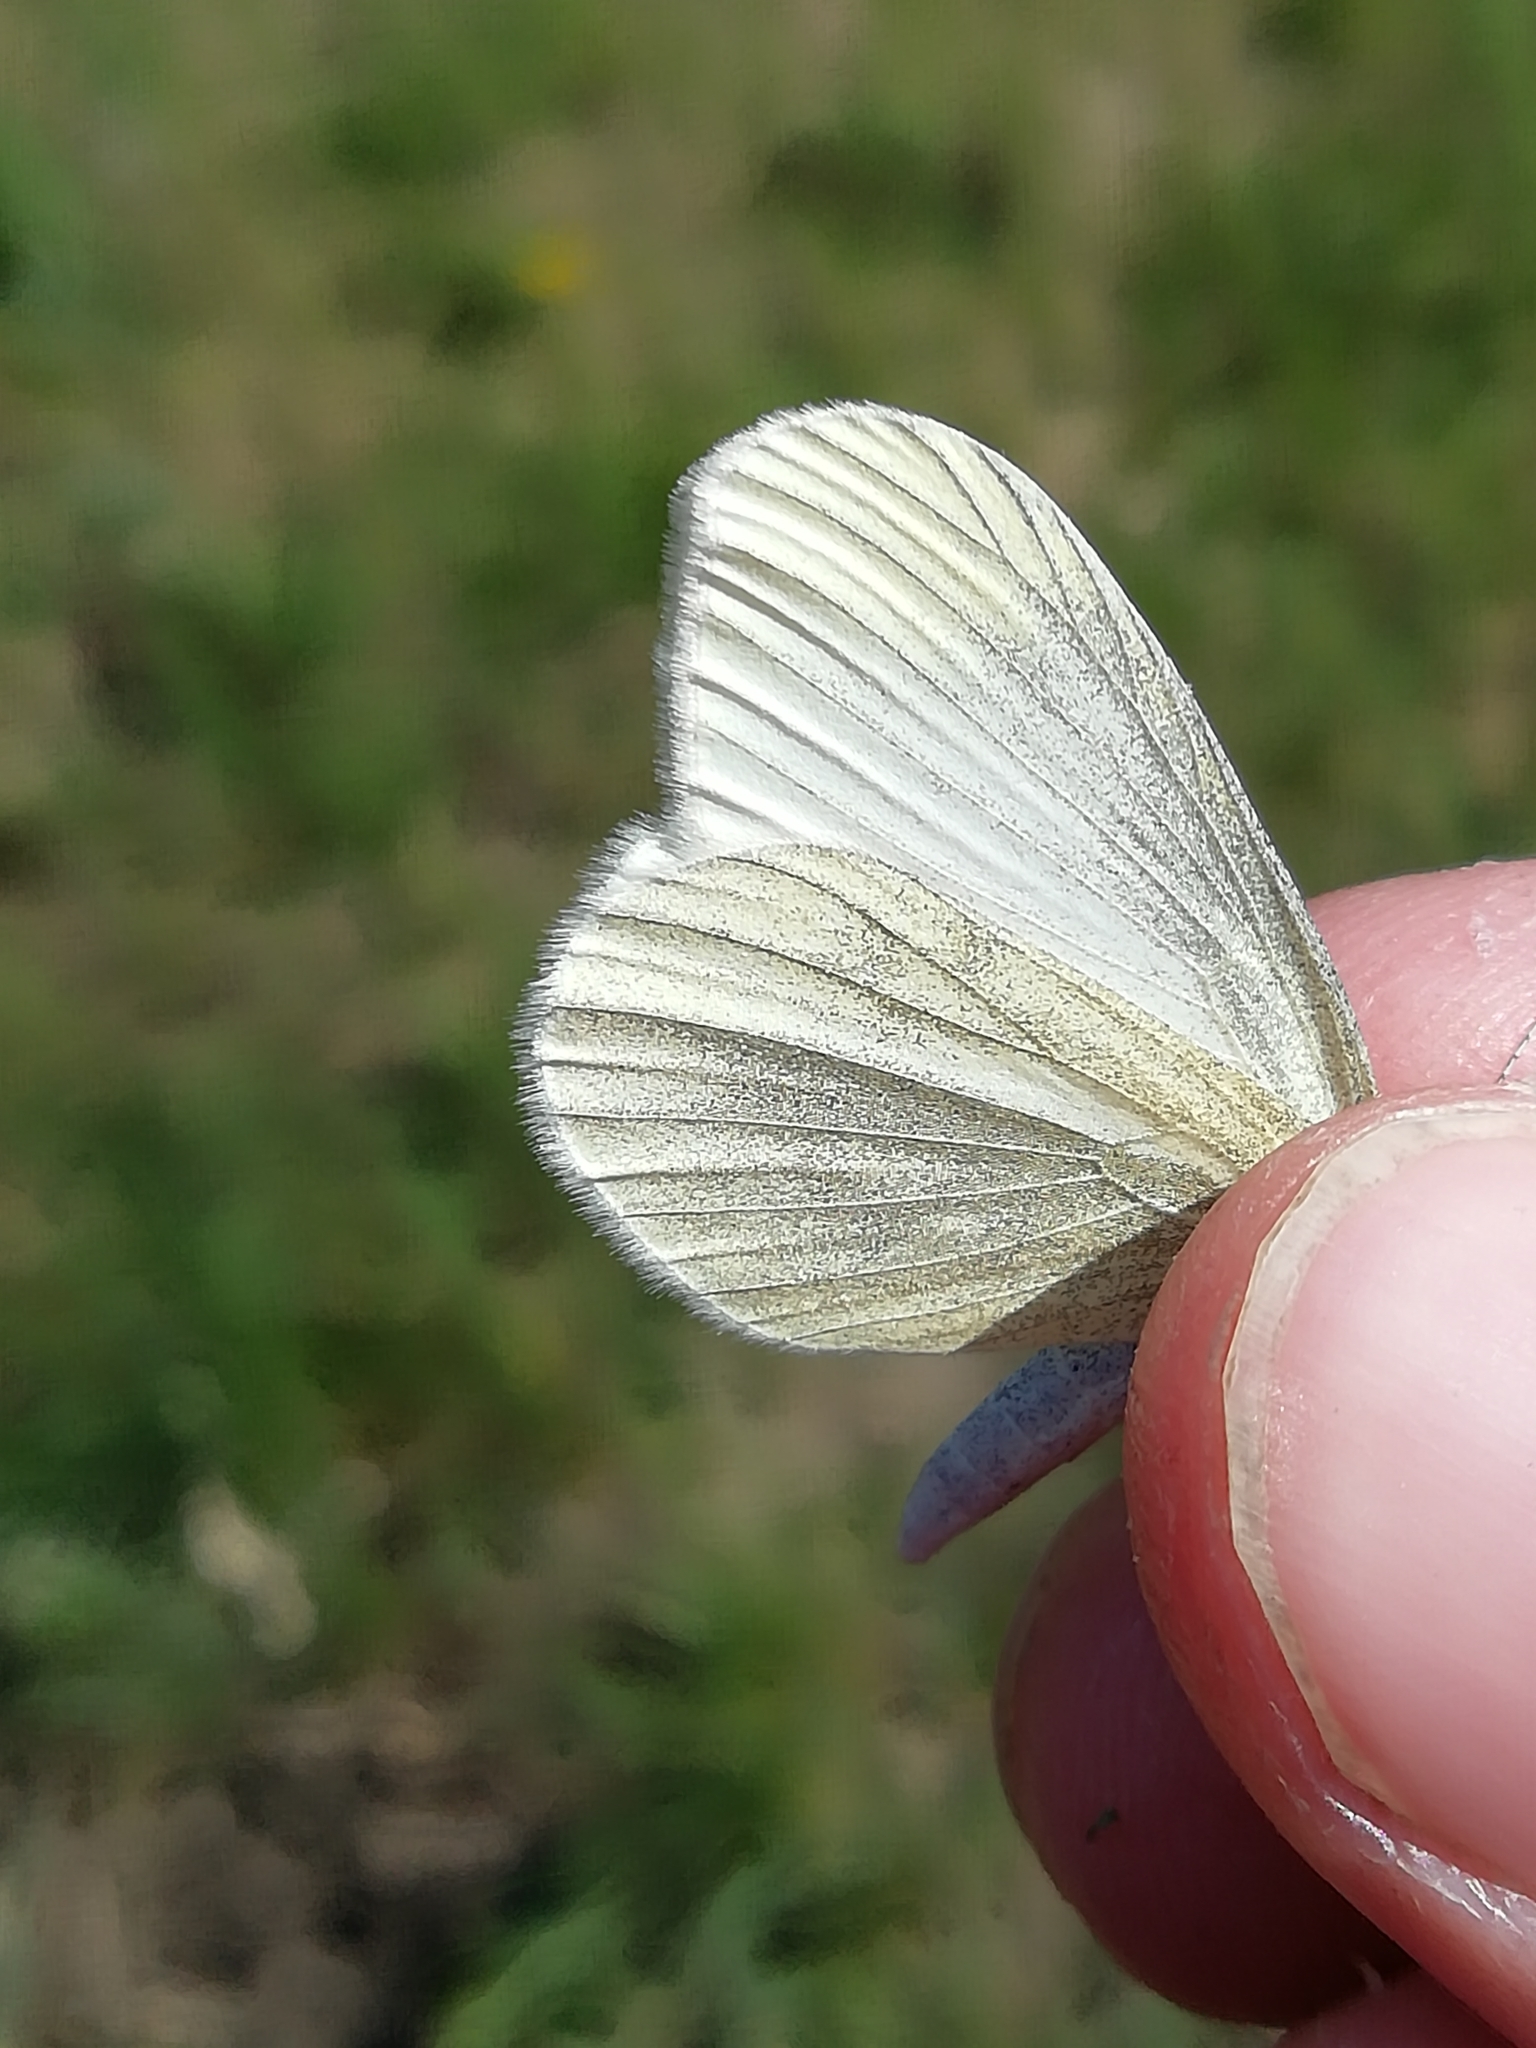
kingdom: Animalia
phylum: Arthropoda
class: Insecta
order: Lepidoptera
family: Pieridae
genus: Leptidea
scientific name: Leptidea morsei
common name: Fenton's wood white
